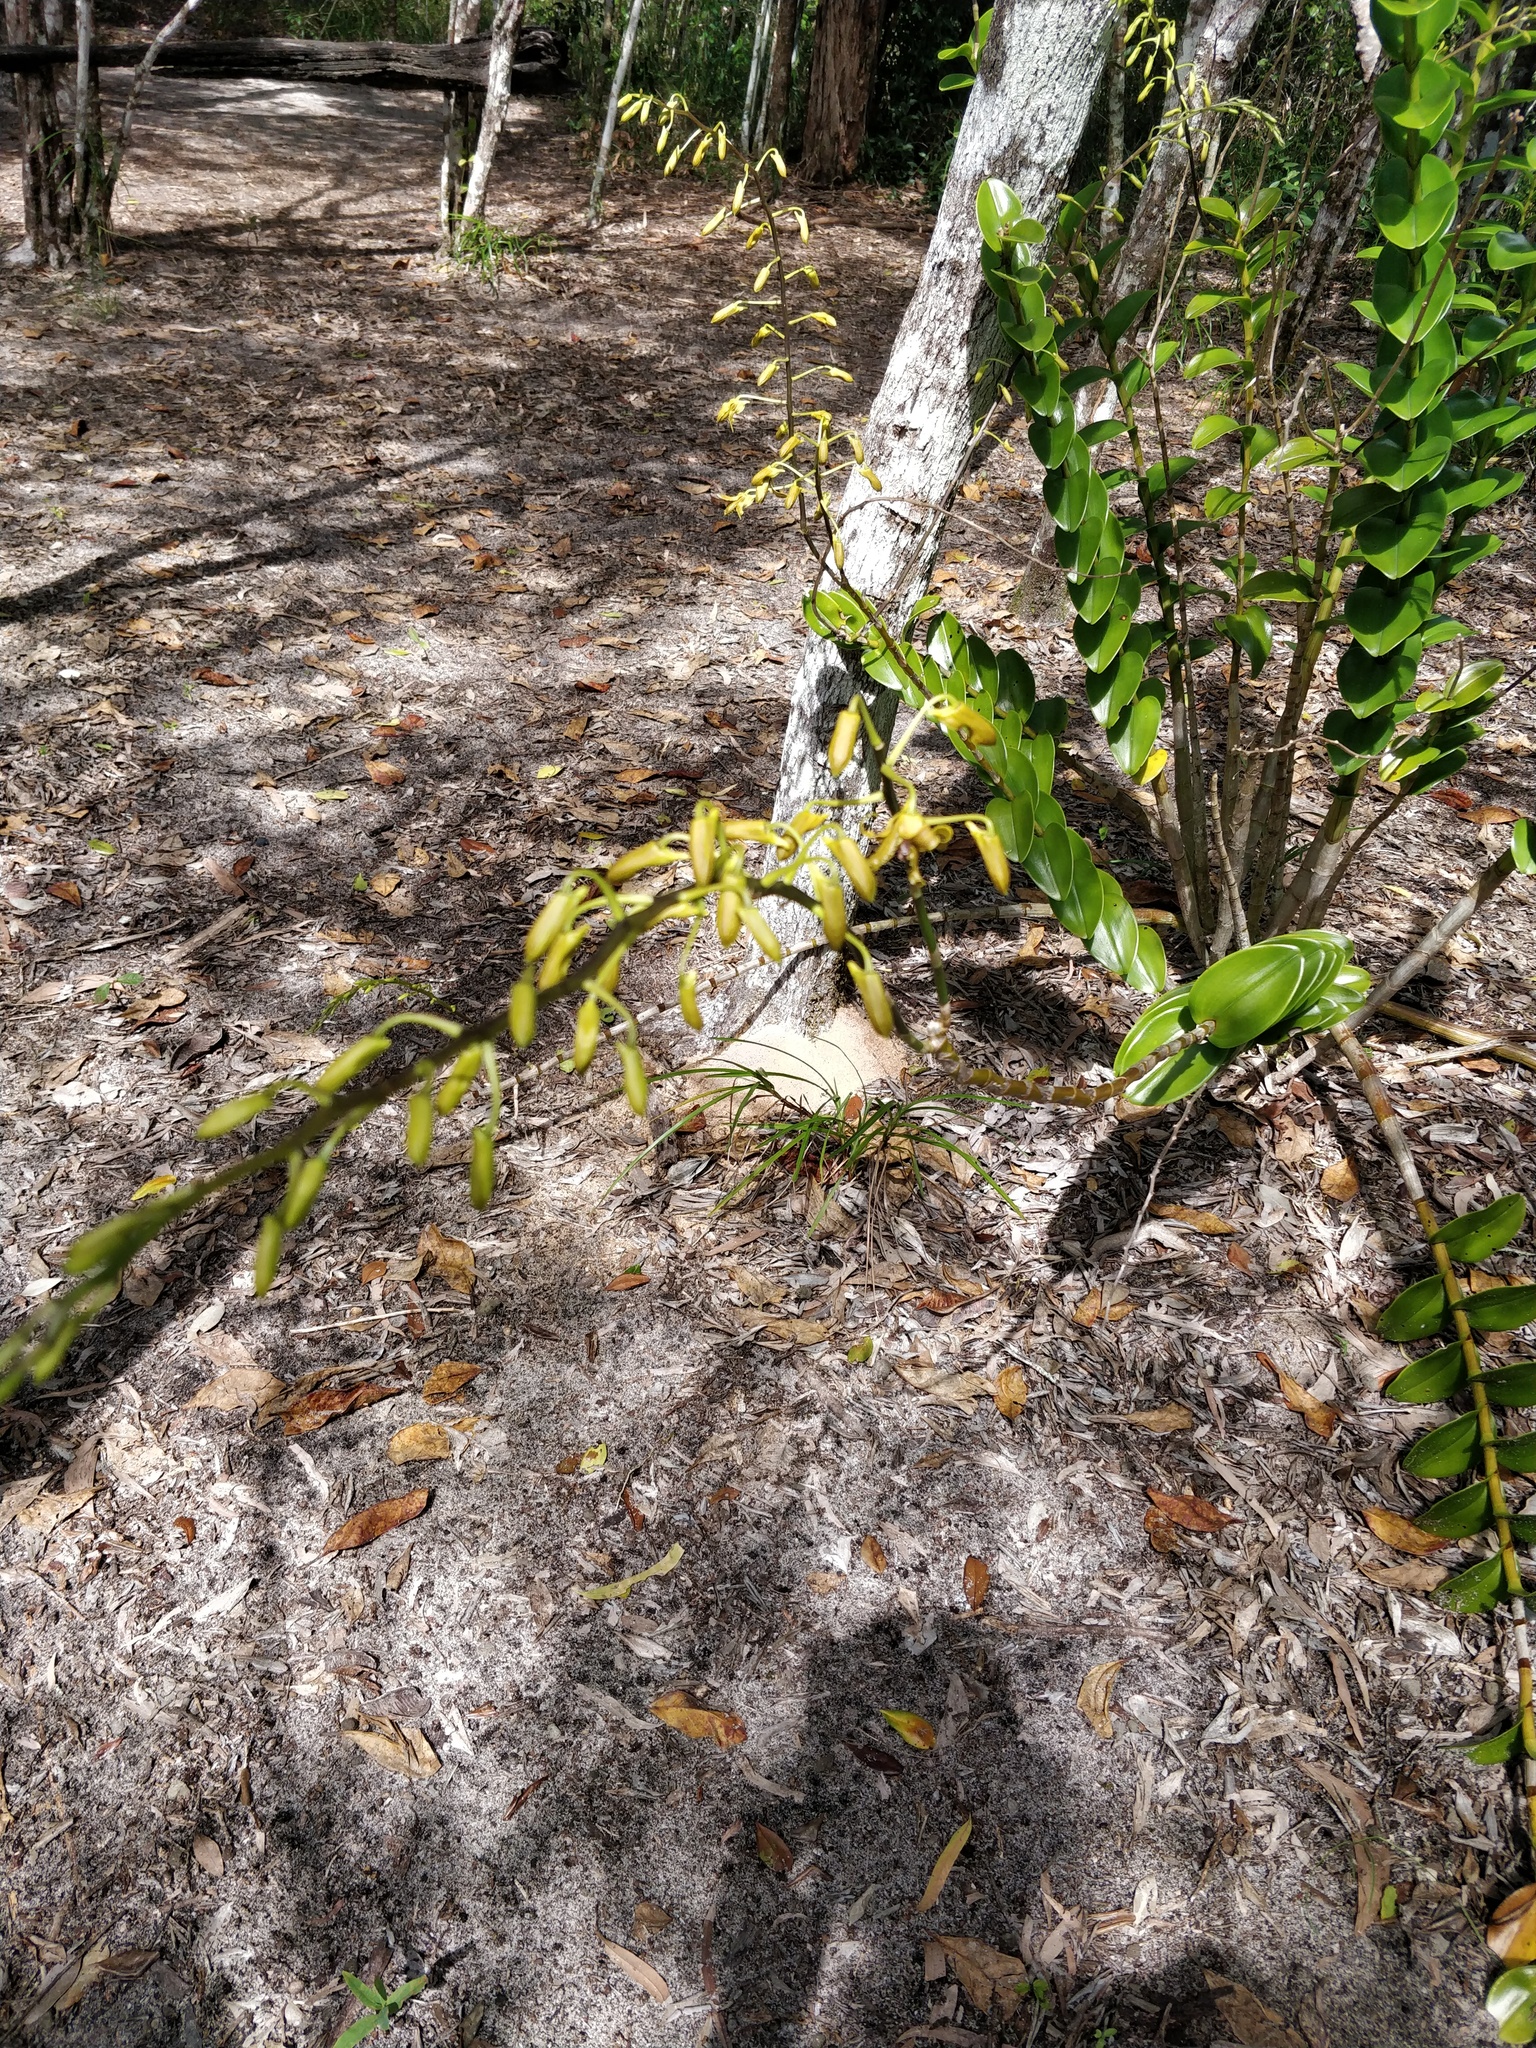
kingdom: Plantae
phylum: Tracheophyta
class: Liliopsida
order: Asparagales
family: Orchidaceae
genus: Dendrobium
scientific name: Dendrobium discolor
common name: Golden antler orchid
